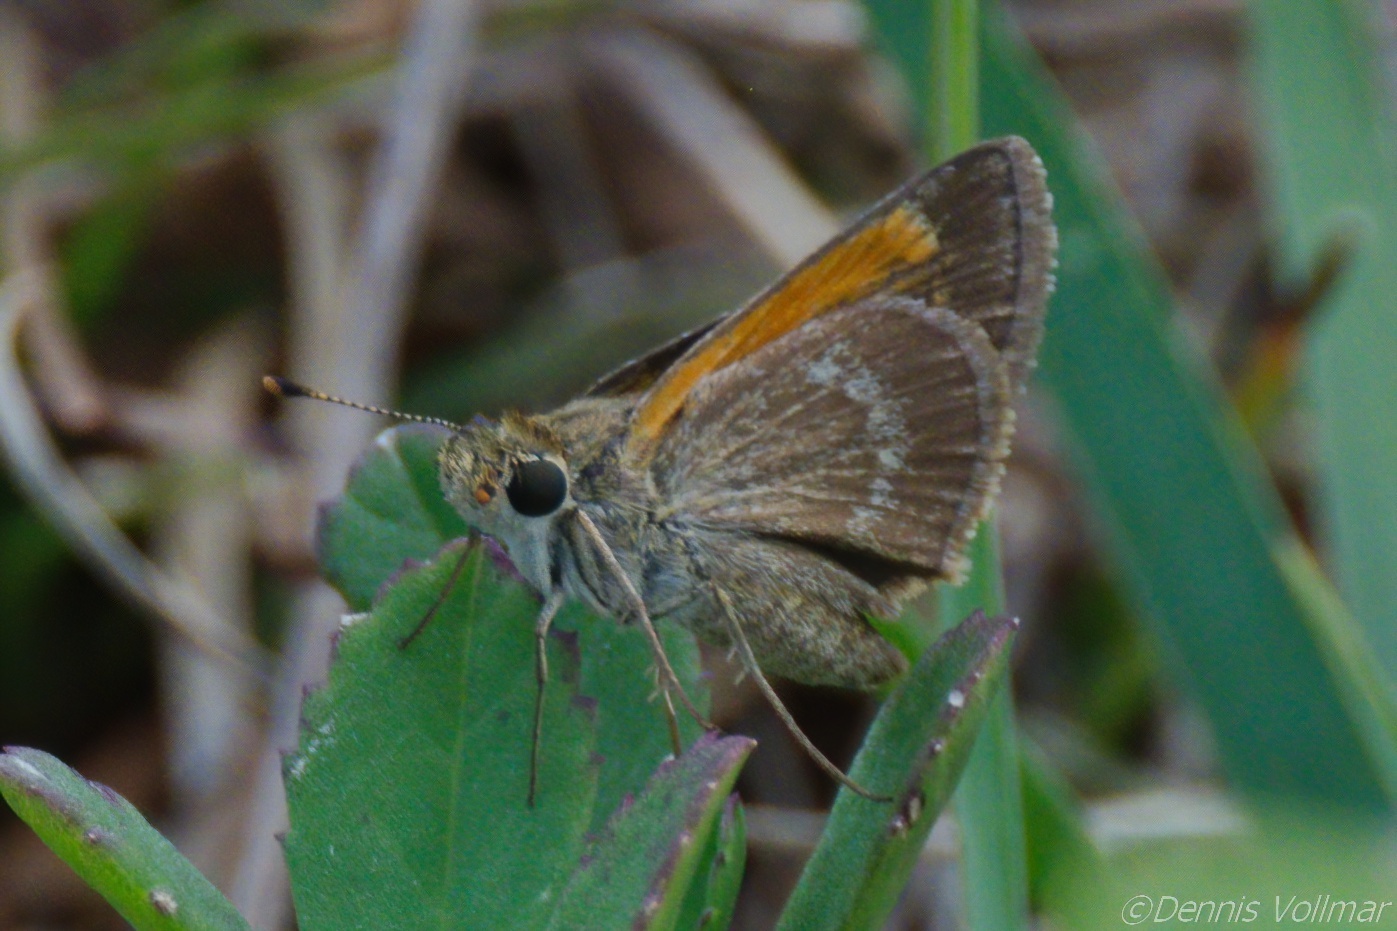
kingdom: Animalia
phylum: Arthropoda
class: Insecta
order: Lepidoptera
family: Hesperiidae
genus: Polites
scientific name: Polites baracoa
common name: Baracoa skipper
